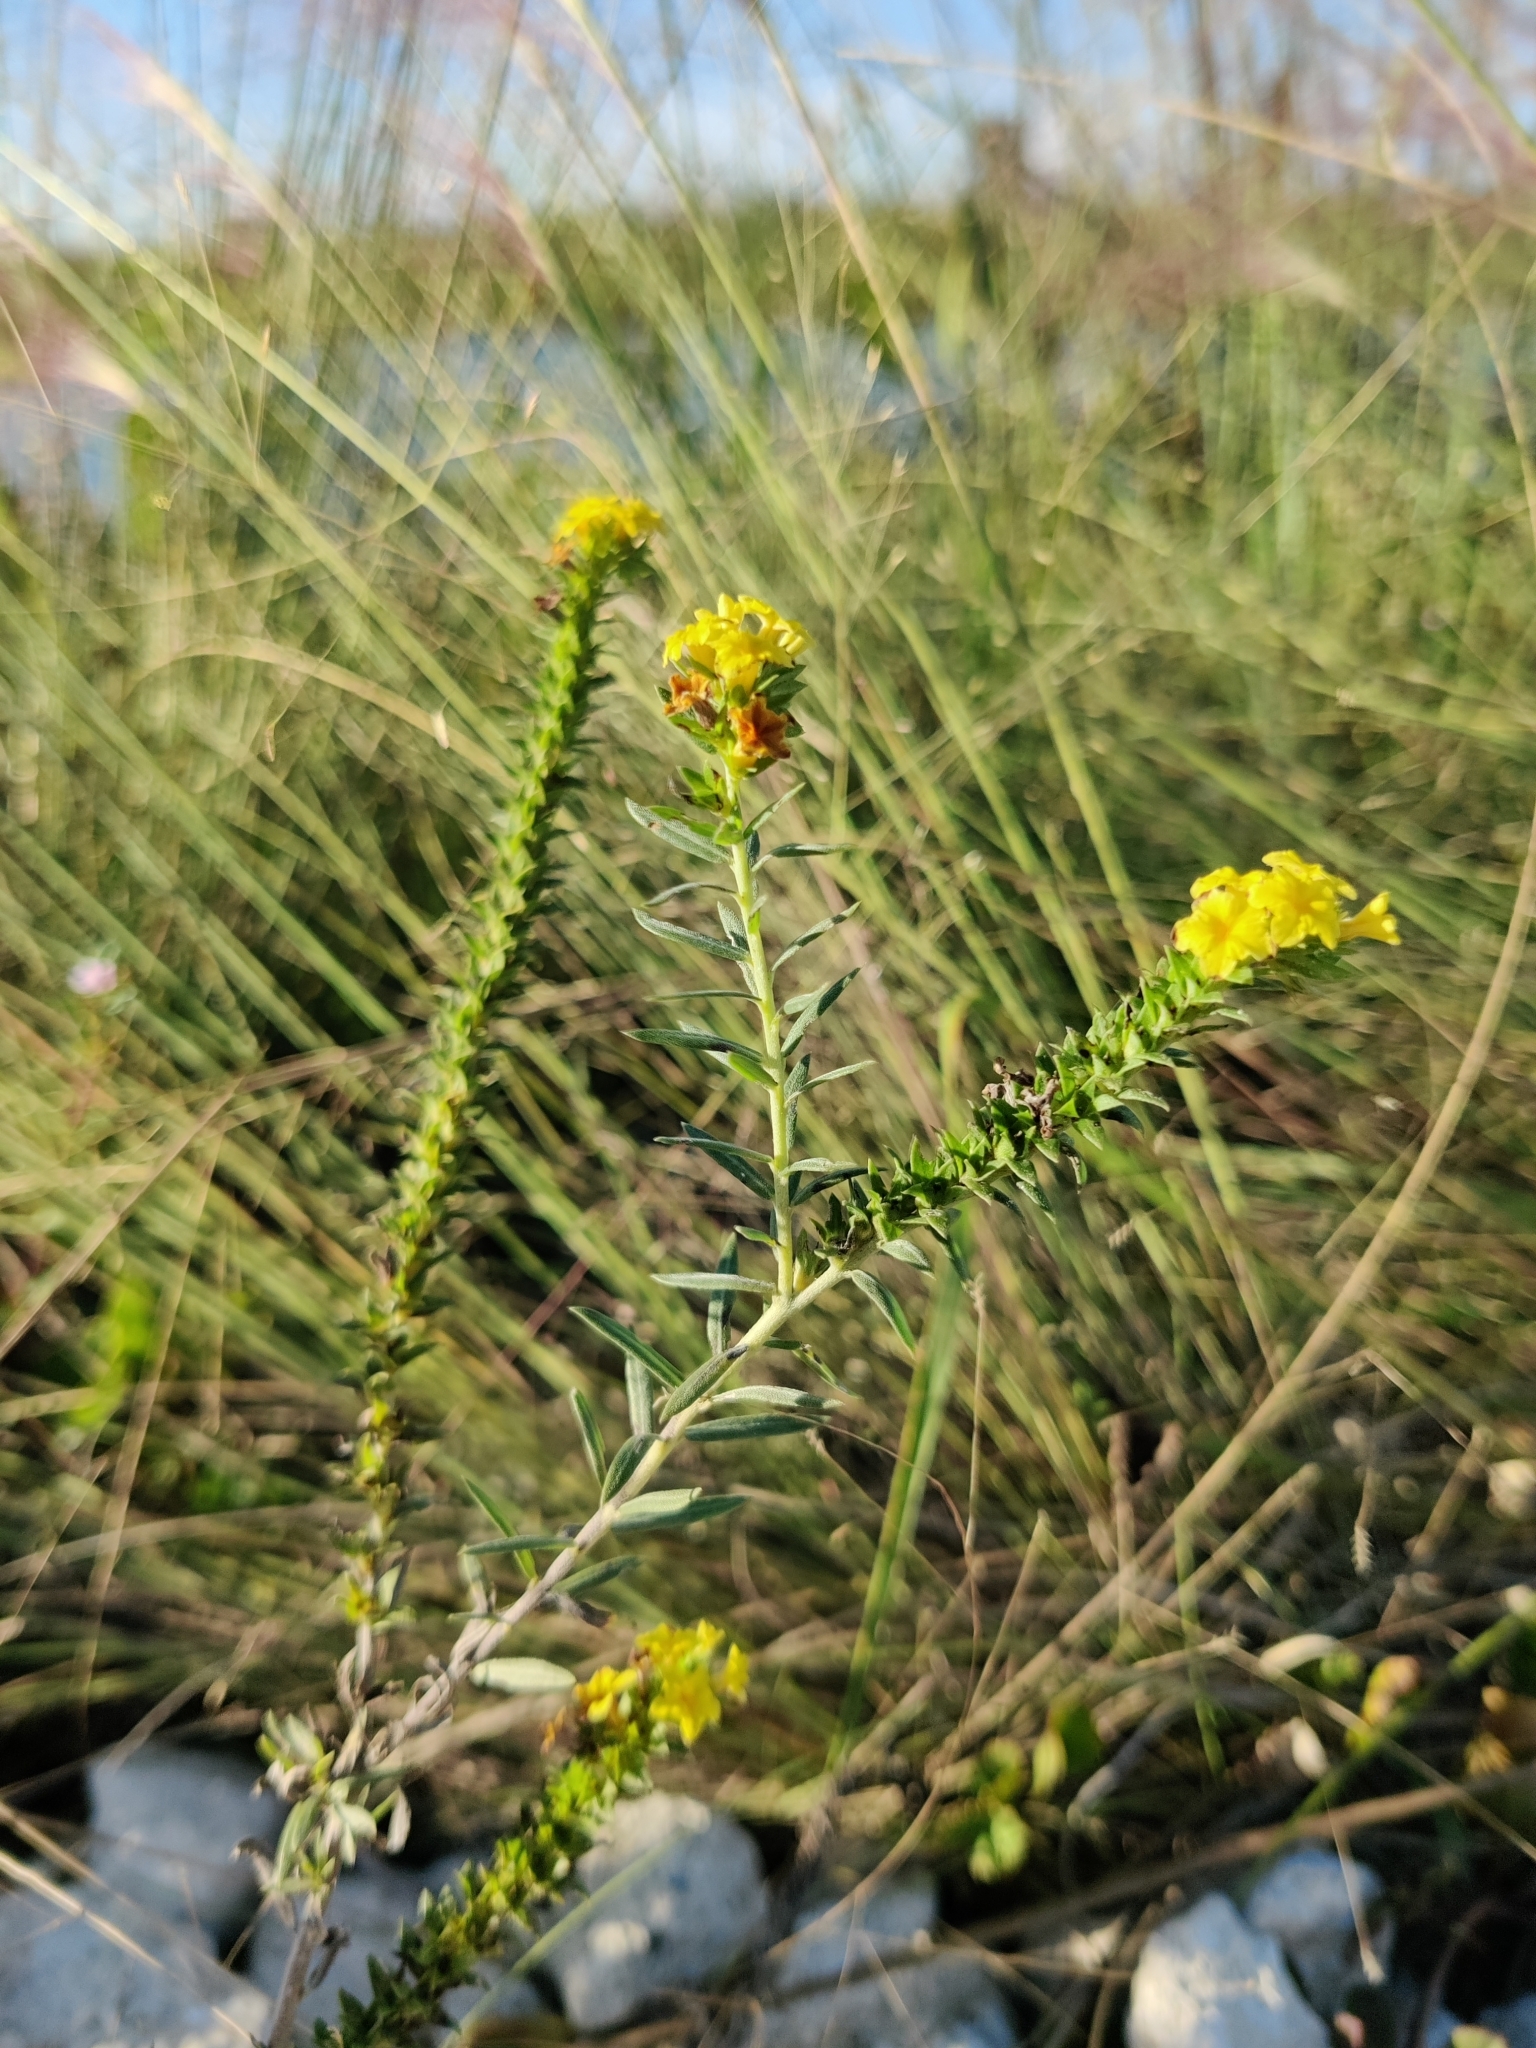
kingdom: Plantae
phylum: Tracheophyta
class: Magnoliopsida
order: Boraginales
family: Heliotropiaceae
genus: Euploca
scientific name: Euploca polyphylla
